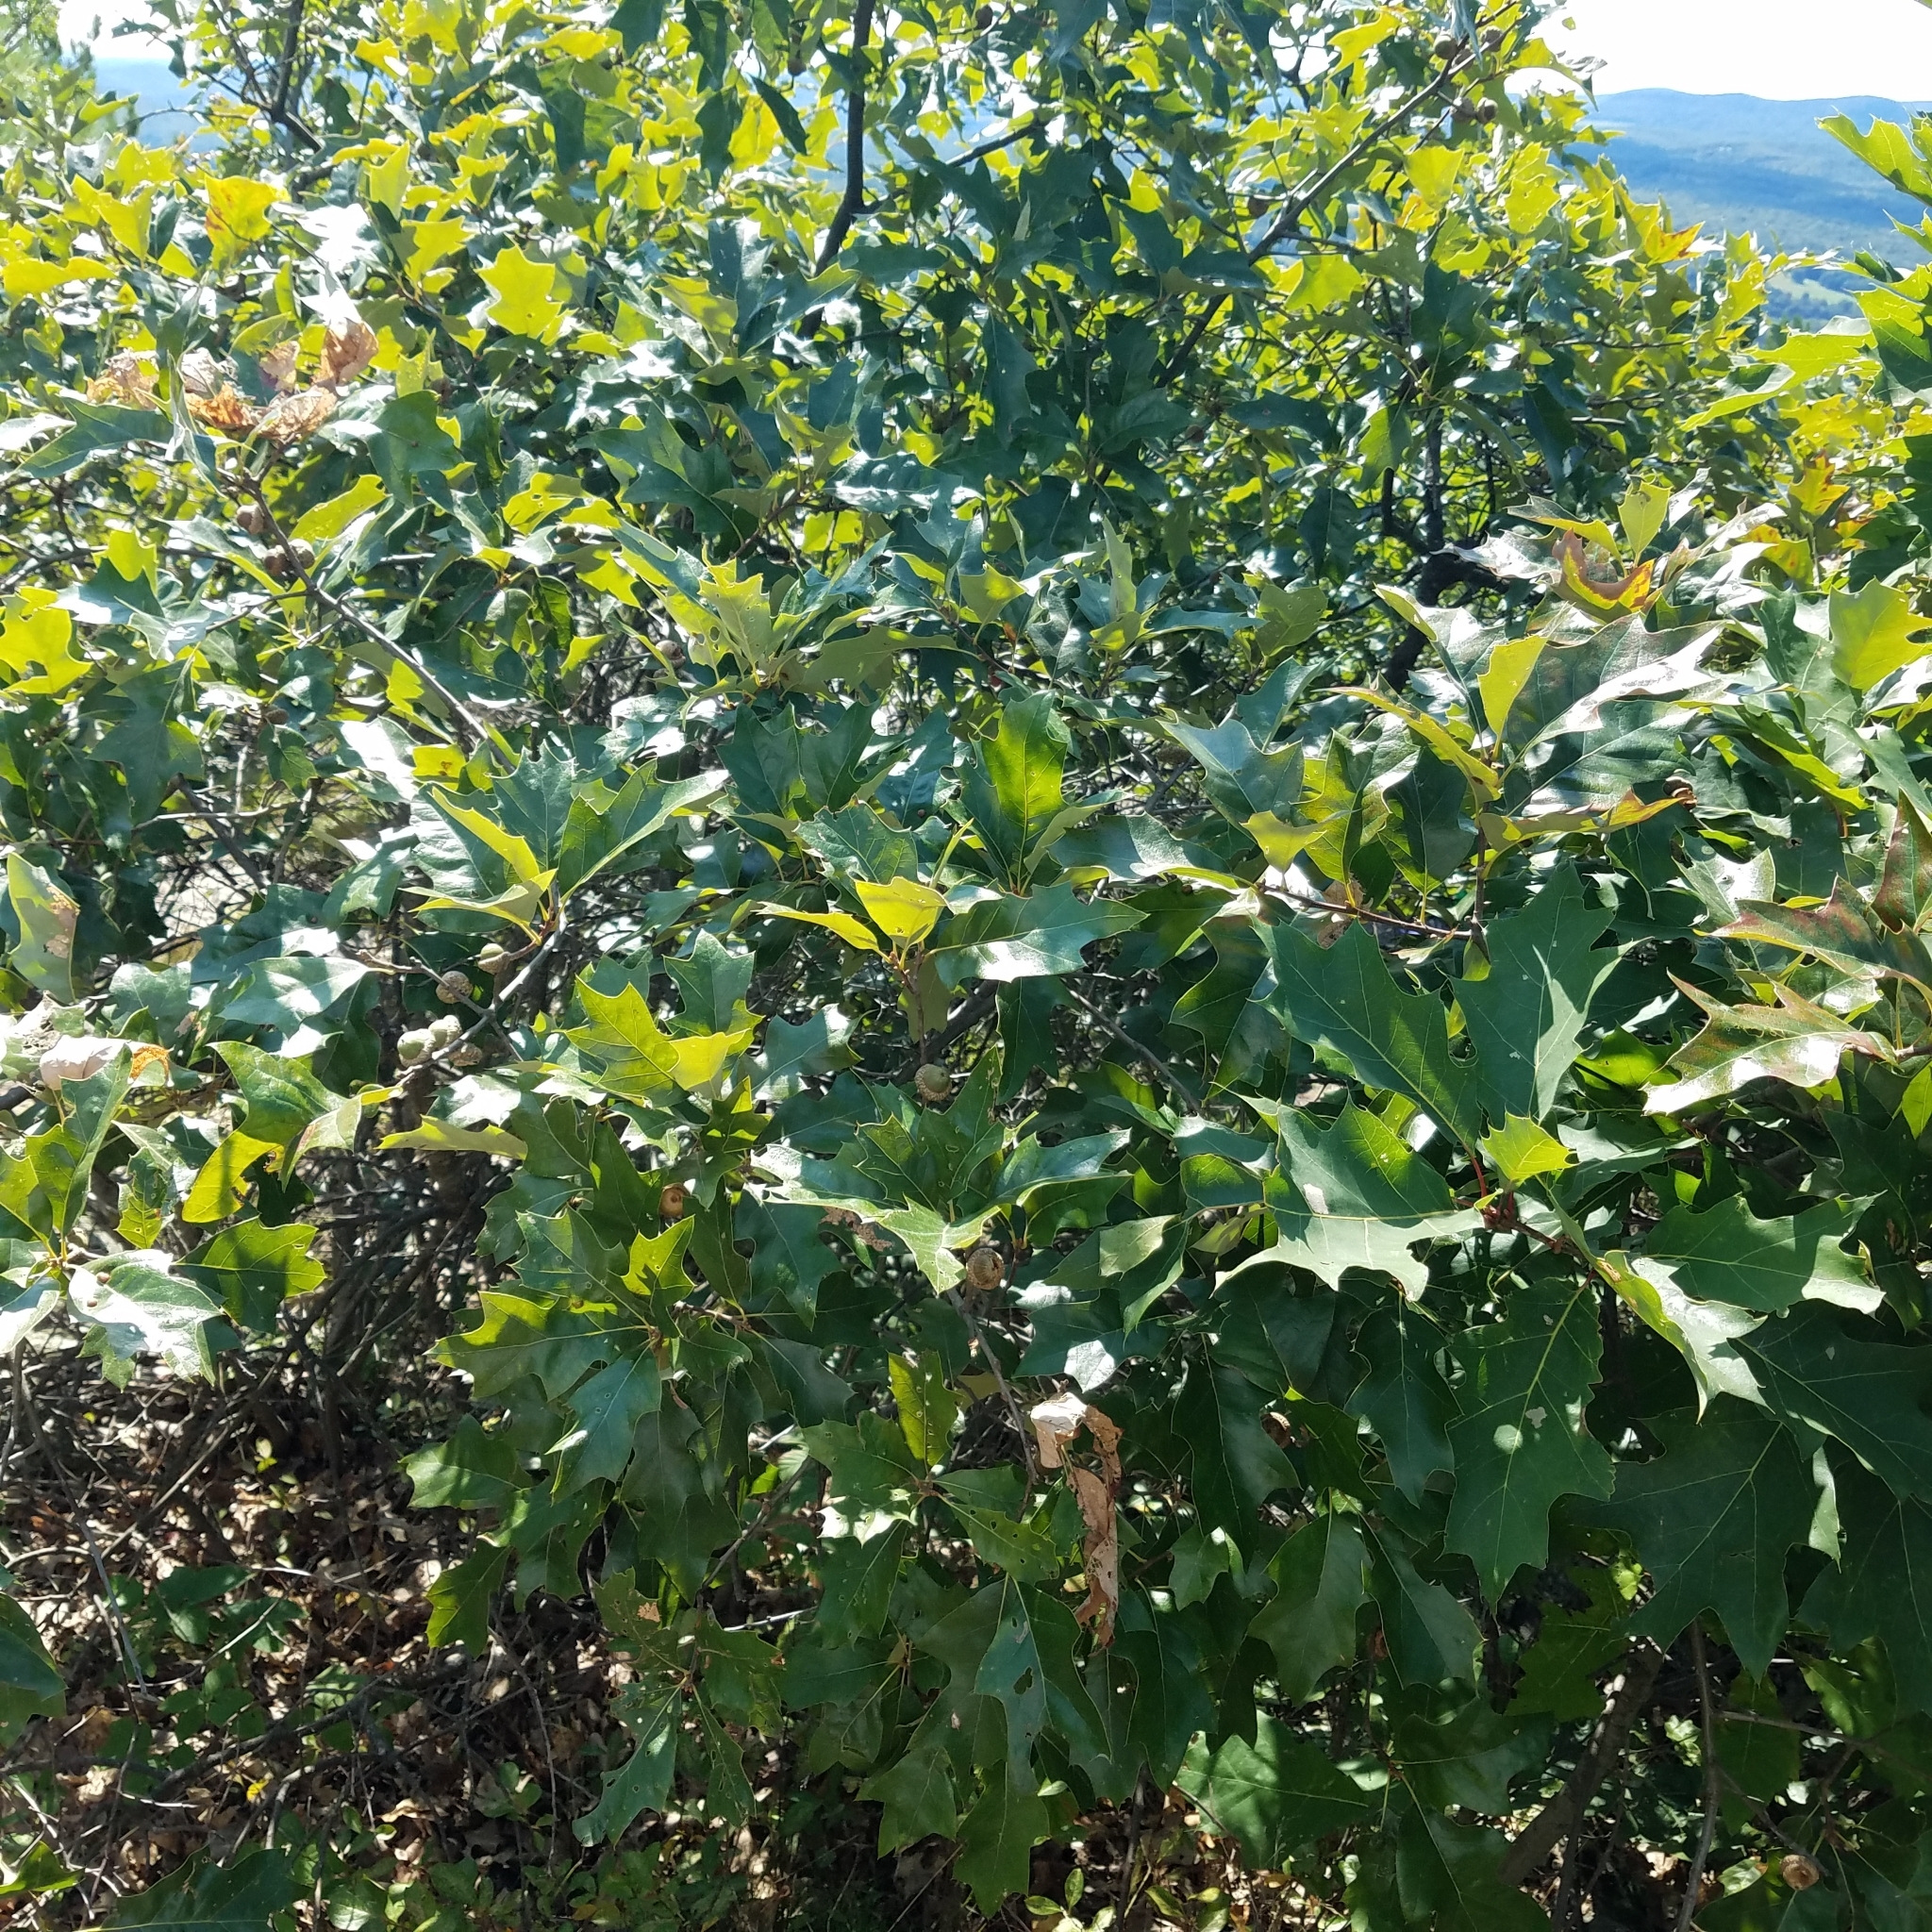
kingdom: Plantae
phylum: Tracheophyta
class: Magnoliopsida
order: Fagales
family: Fagaceae
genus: Quercus
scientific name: Quercus ilicifolia
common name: Bear oak
